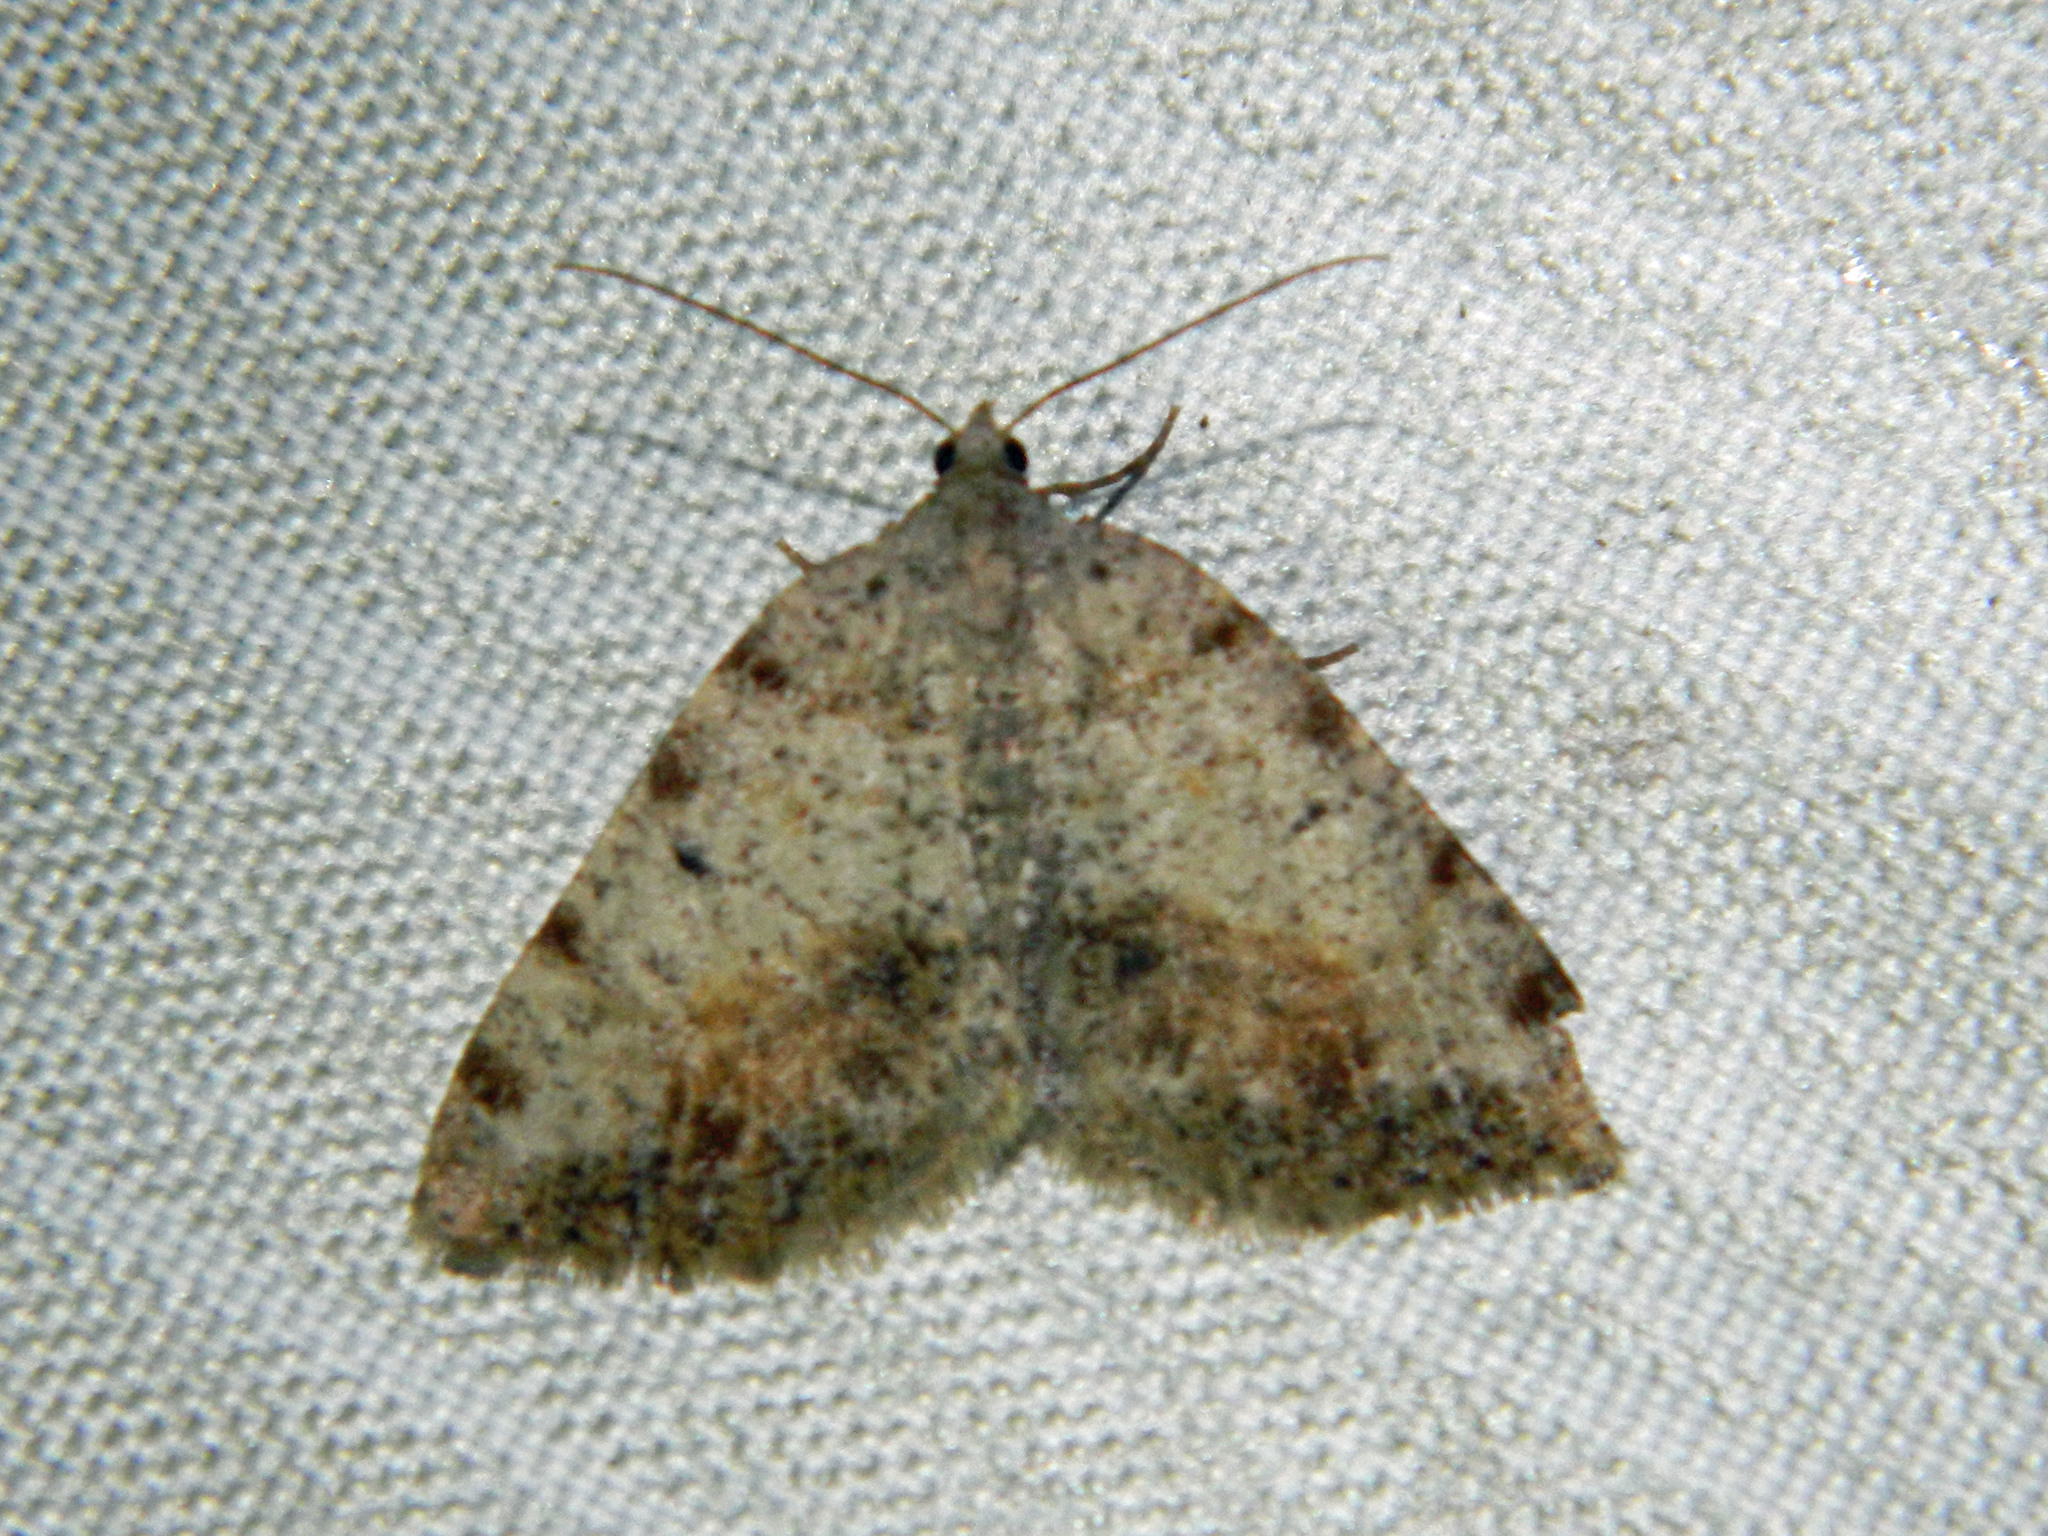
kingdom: Animalia
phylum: Arthropoda
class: Insecta
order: Lepidoptera
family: Geometridae
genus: Macaria
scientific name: Macaria exauspicata
